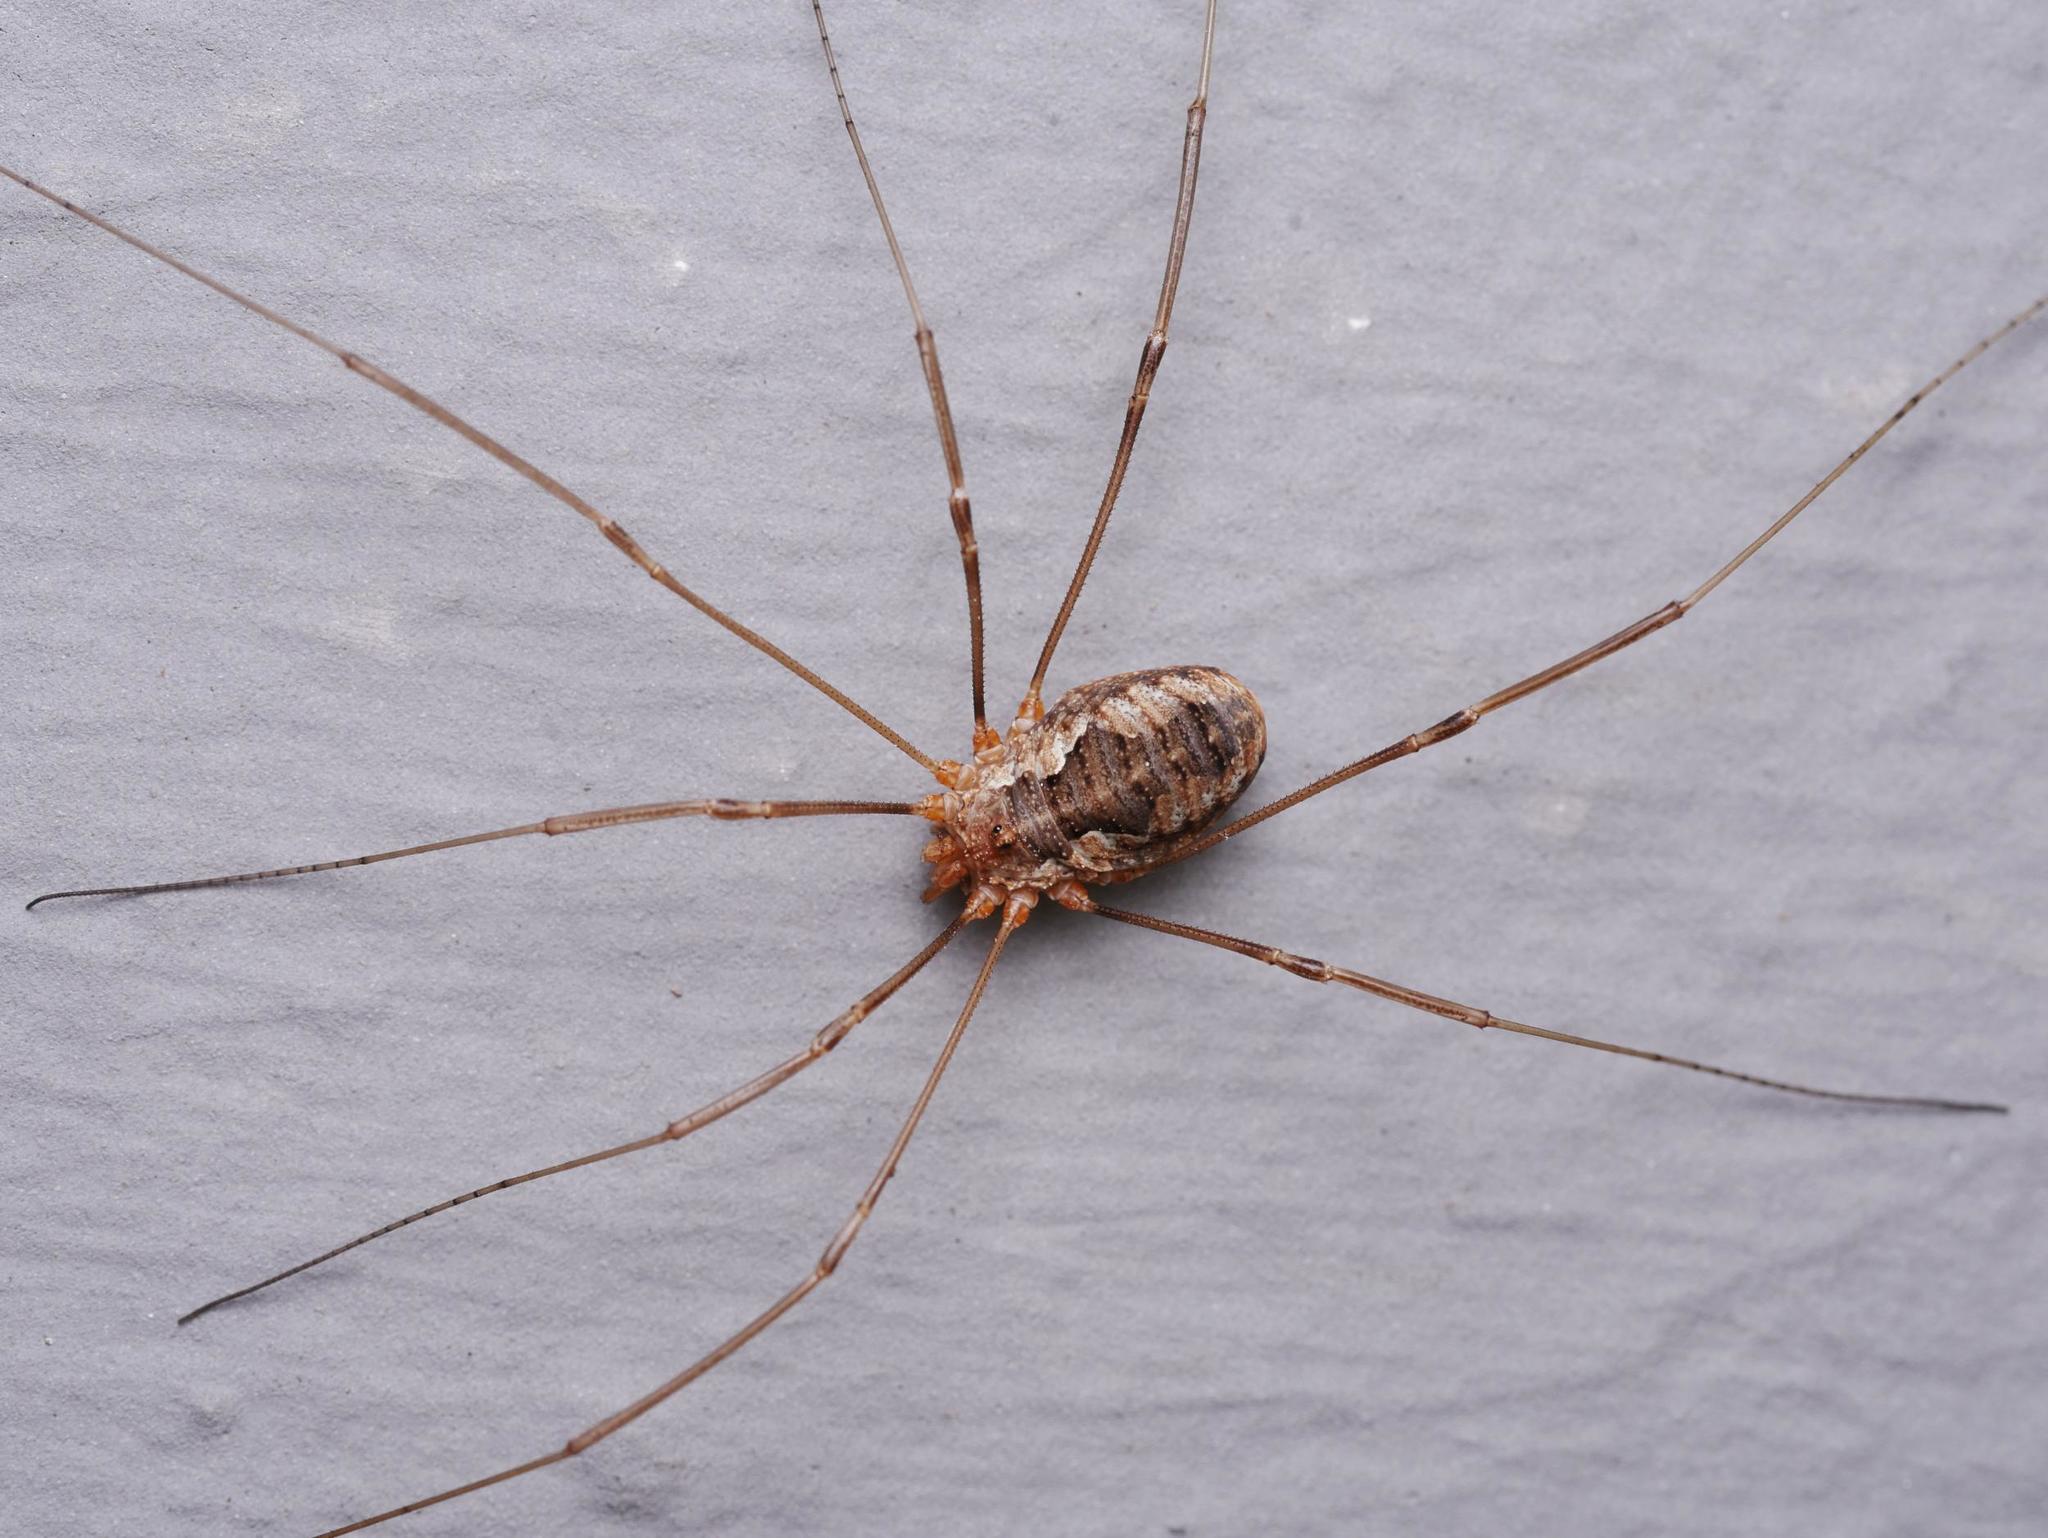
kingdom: Animalia
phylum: Arthropoda
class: Arachnida
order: Opiliones
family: Phalangiidae
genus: Phalangium
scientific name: Phalangium opilio
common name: Daddy longleg
